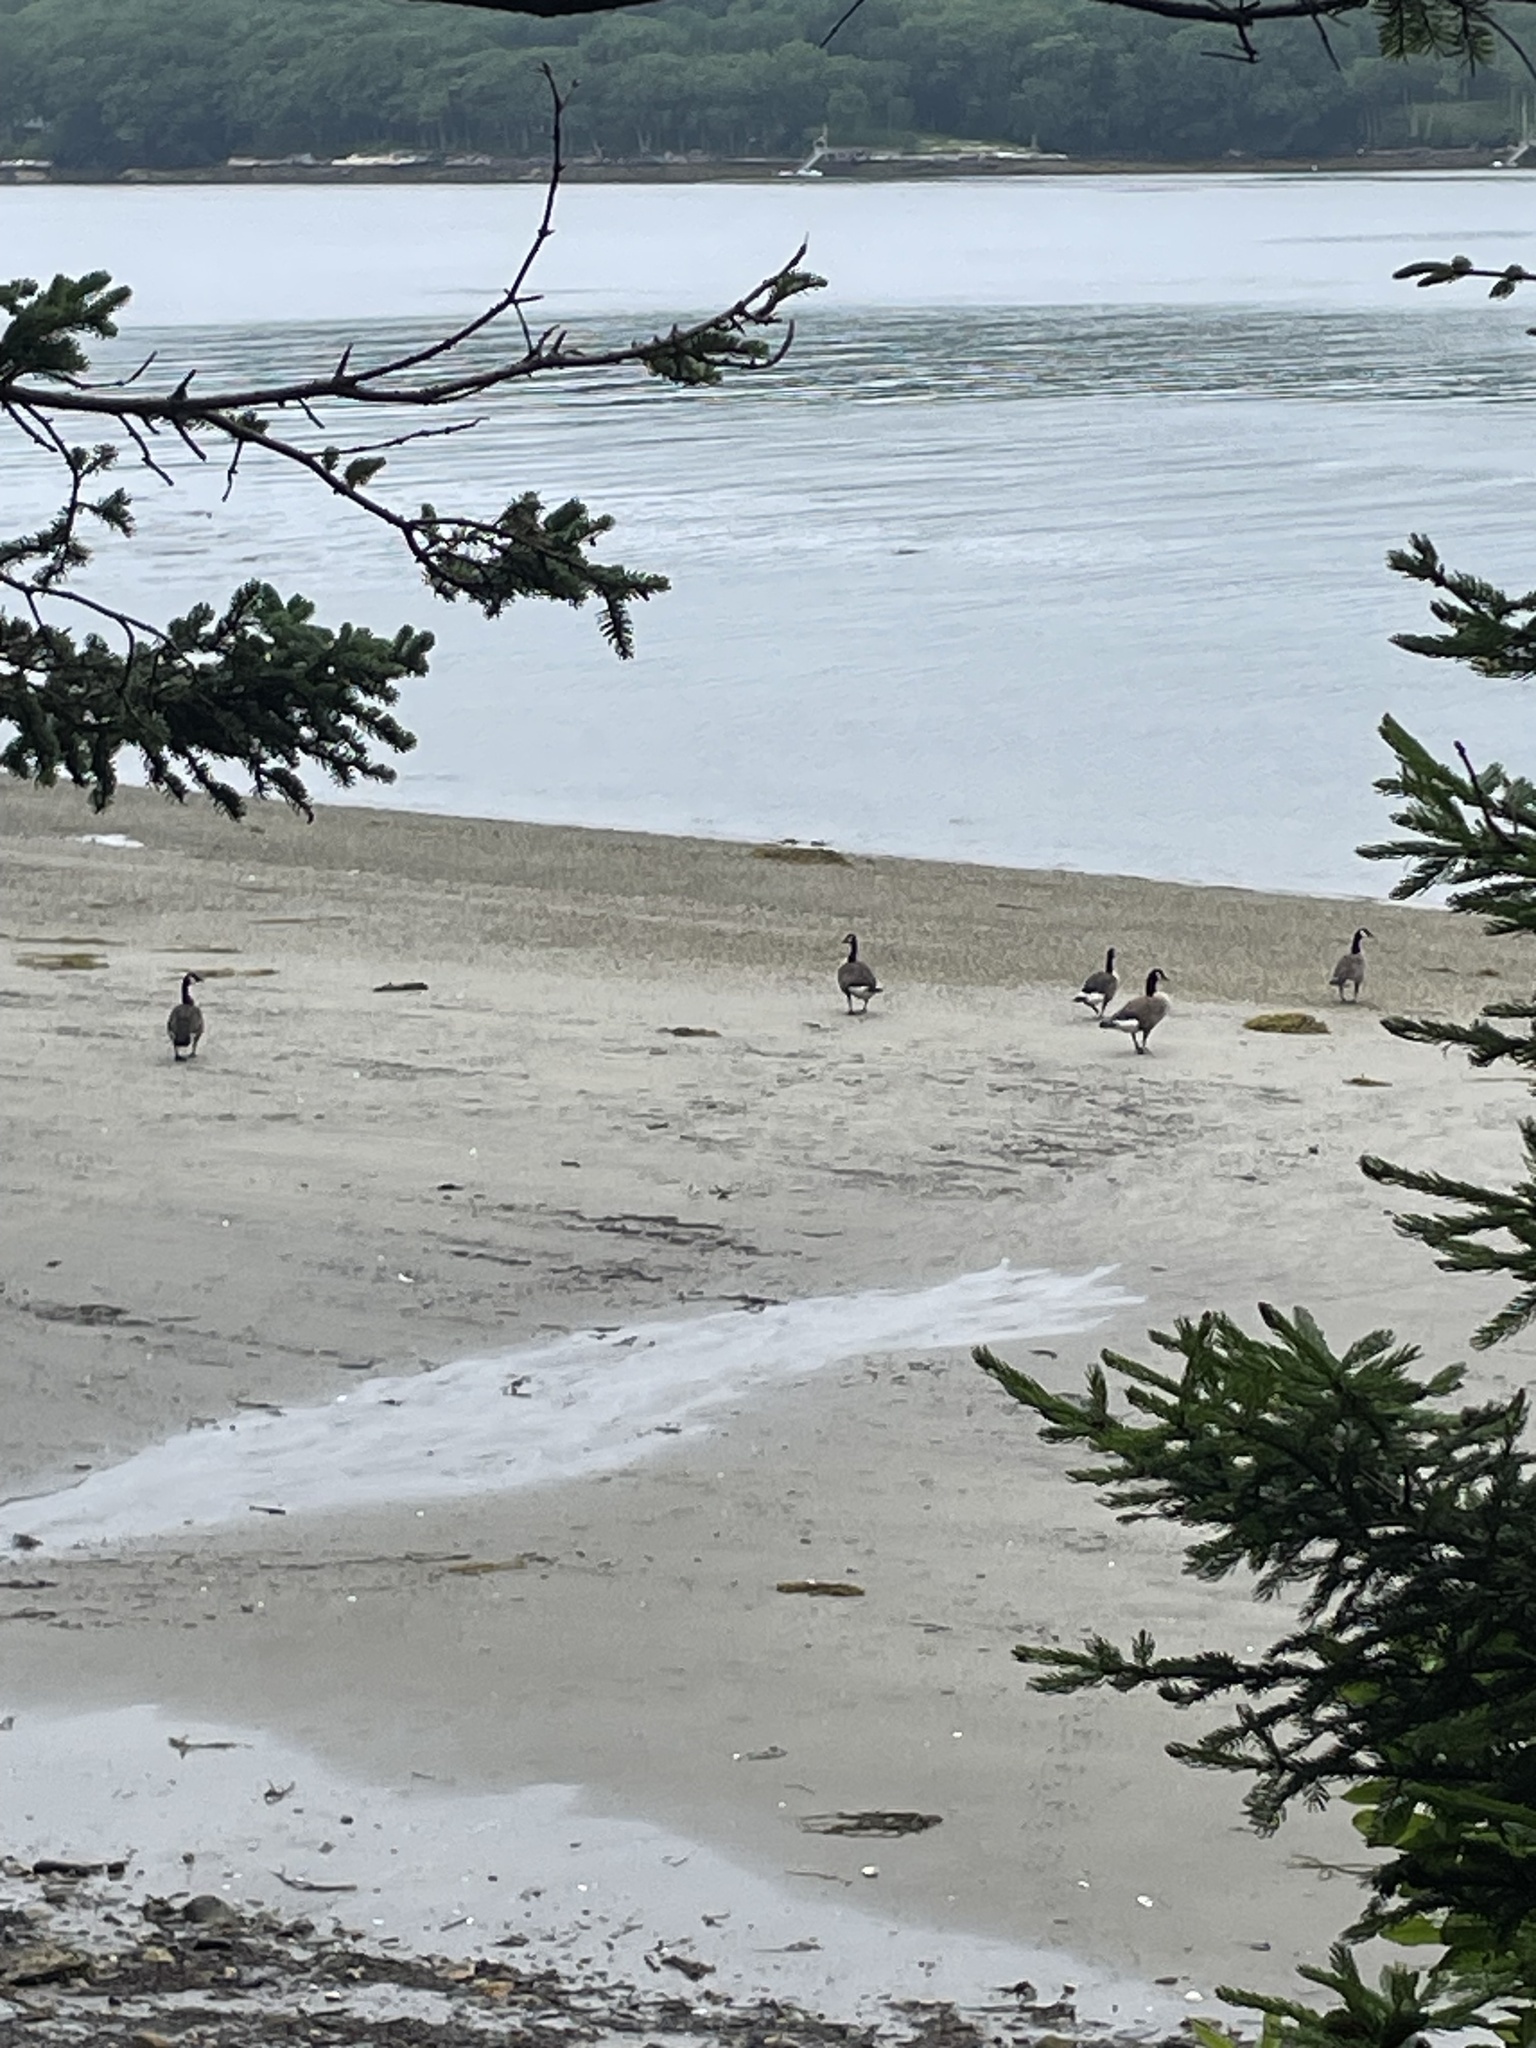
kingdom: Animalia
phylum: Chordata
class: Aves
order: Anseriformes
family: Anatidae
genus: Branta
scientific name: Branta canadensis
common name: Canada goose
